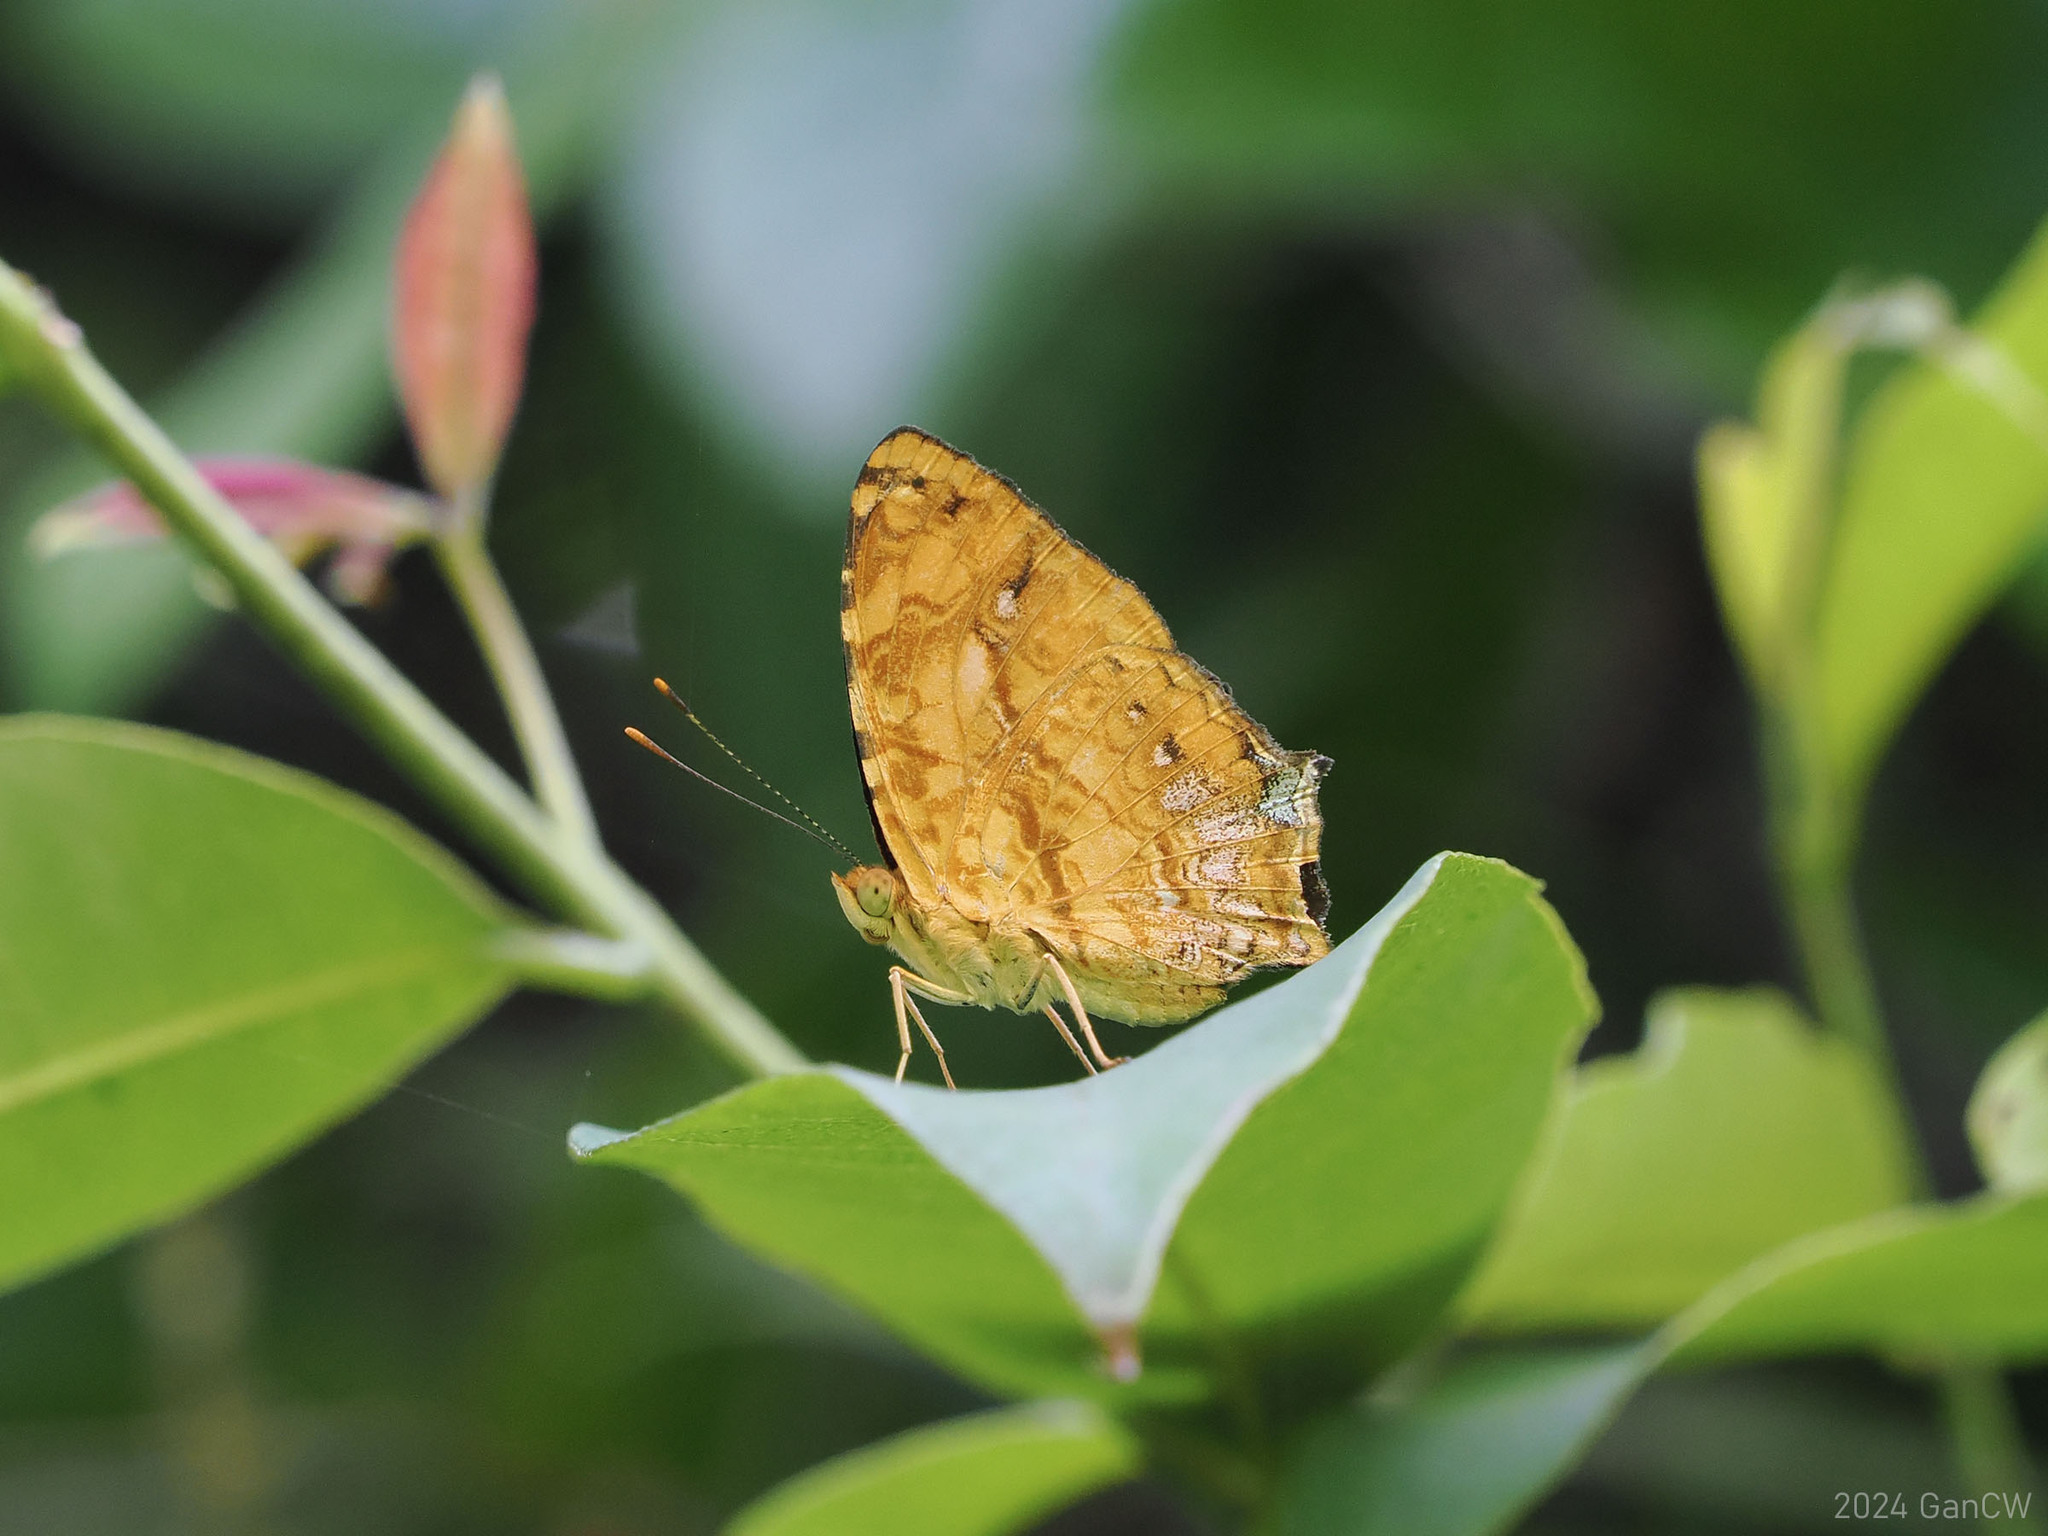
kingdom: Animalia
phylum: Arthropoda
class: Insecta
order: Lepidoptera
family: Nymphalidae
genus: Symbrenthia
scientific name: Symbrenthia hippoclus
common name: Common jester
